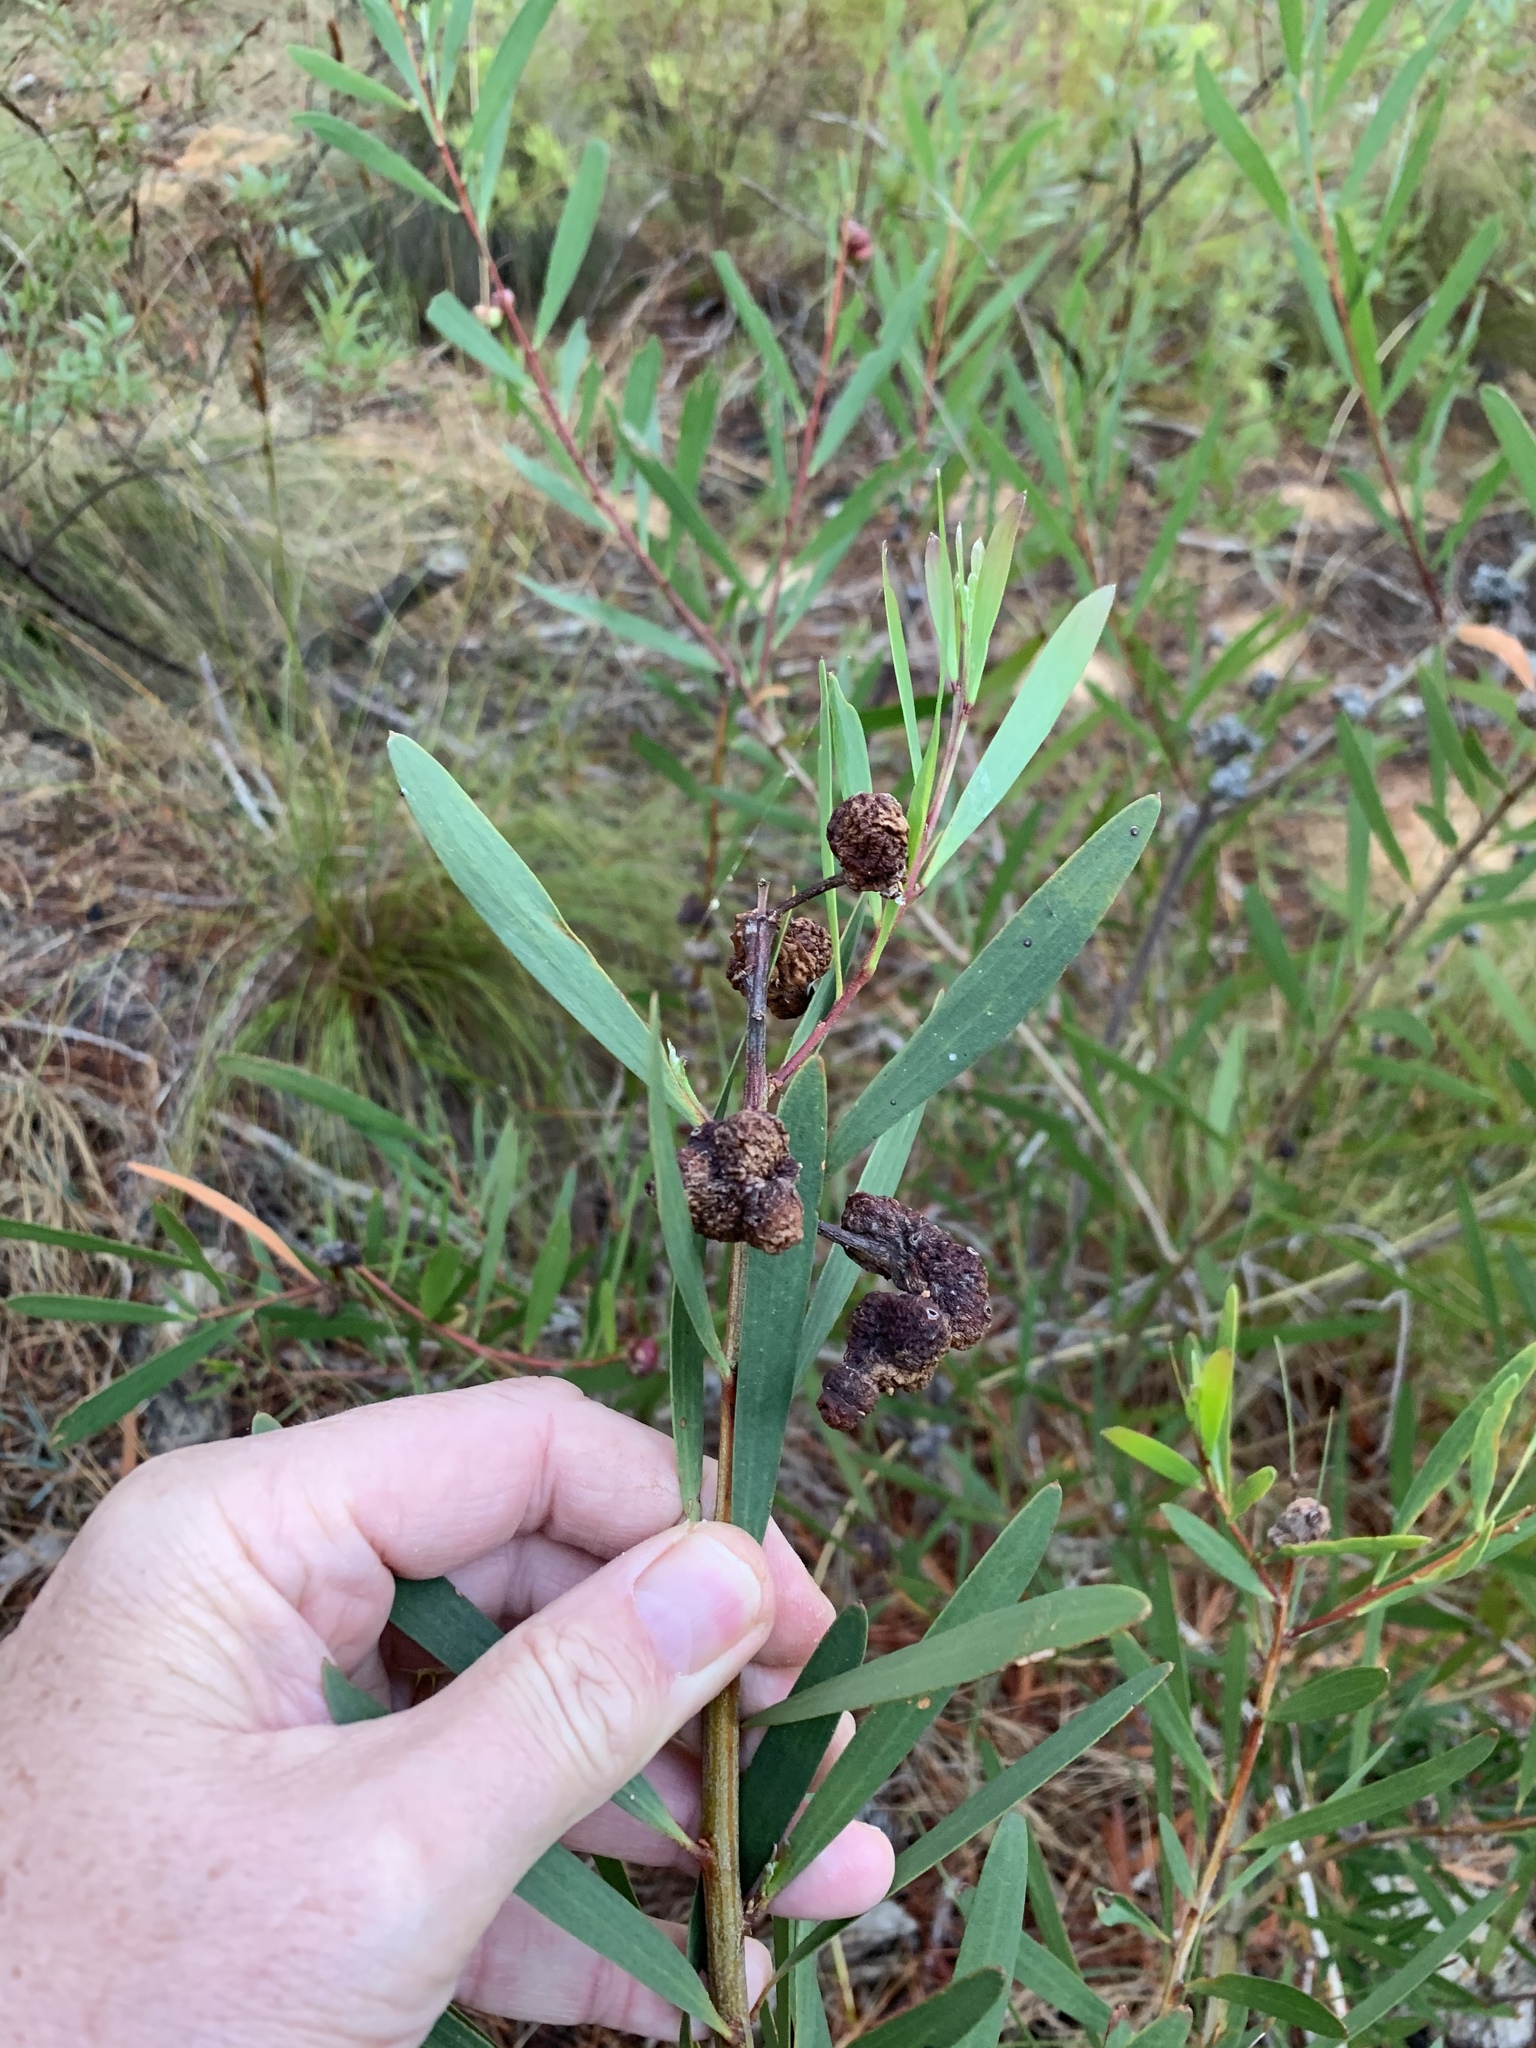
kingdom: Plantae
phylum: Tracheophyta
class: Magnoliopsida
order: Fabales
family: Fabaceae
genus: Acacia
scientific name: Acacia longifolia
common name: Sydney golden wattle
